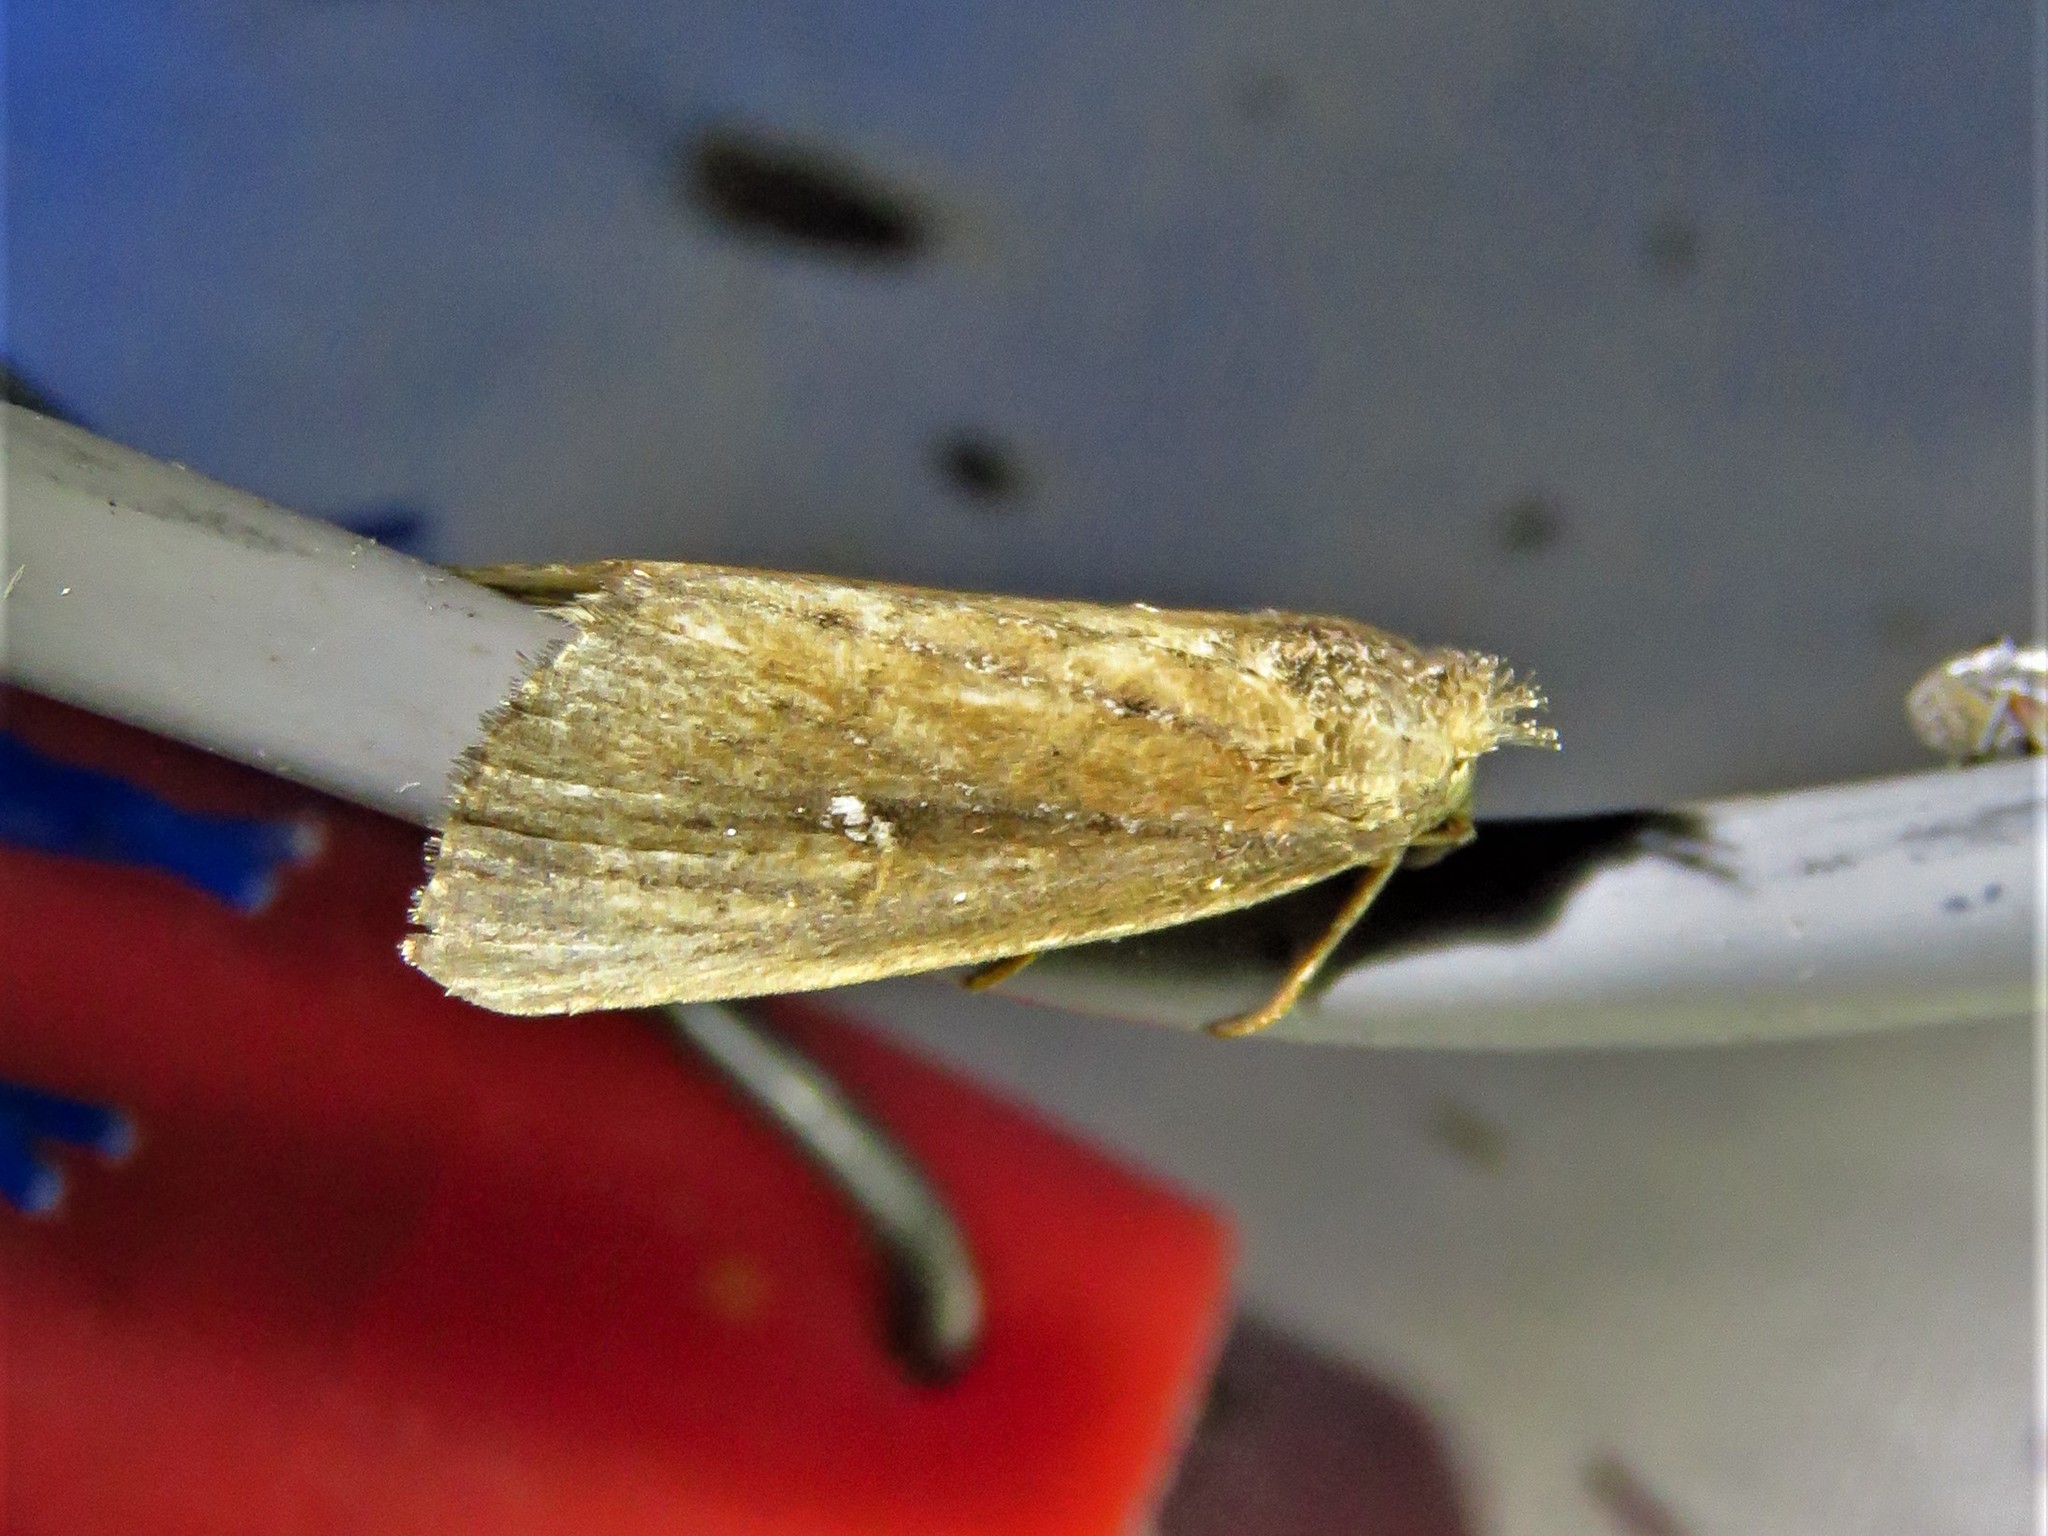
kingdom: Animalia
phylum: Arthropoda
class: Insecta
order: Lepidoptera
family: Noctuidae
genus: Condica
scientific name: Condica videns
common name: White-dotted groundling
